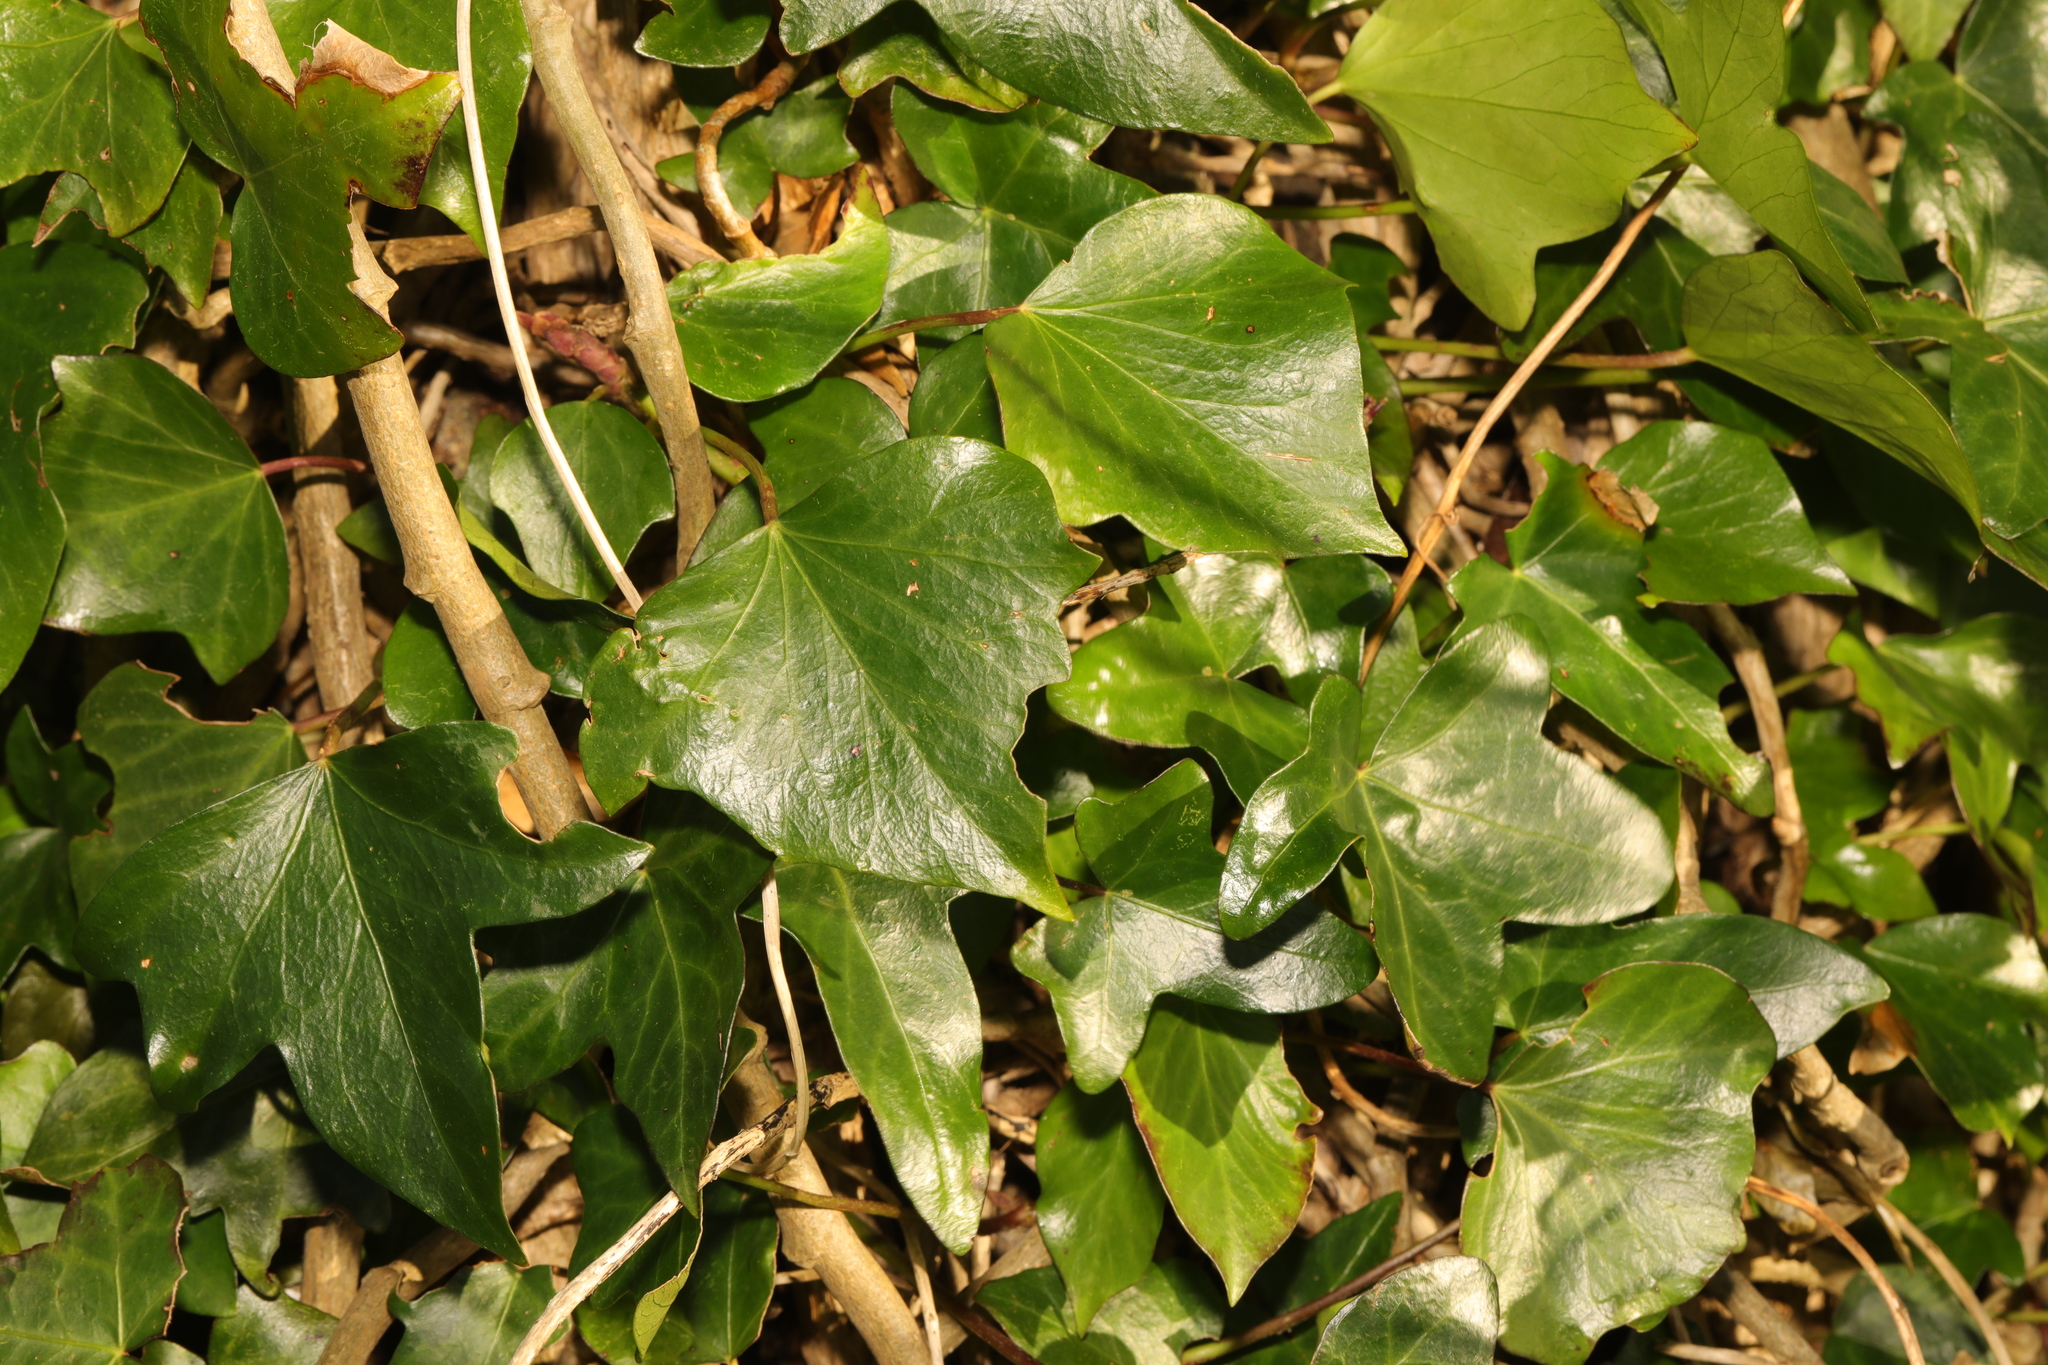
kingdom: Plantae
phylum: Tracheophyta
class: Magnoliopsida
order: Apiales
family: Araliaceae
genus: Hedera
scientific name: Hedera helix
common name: Ivy
